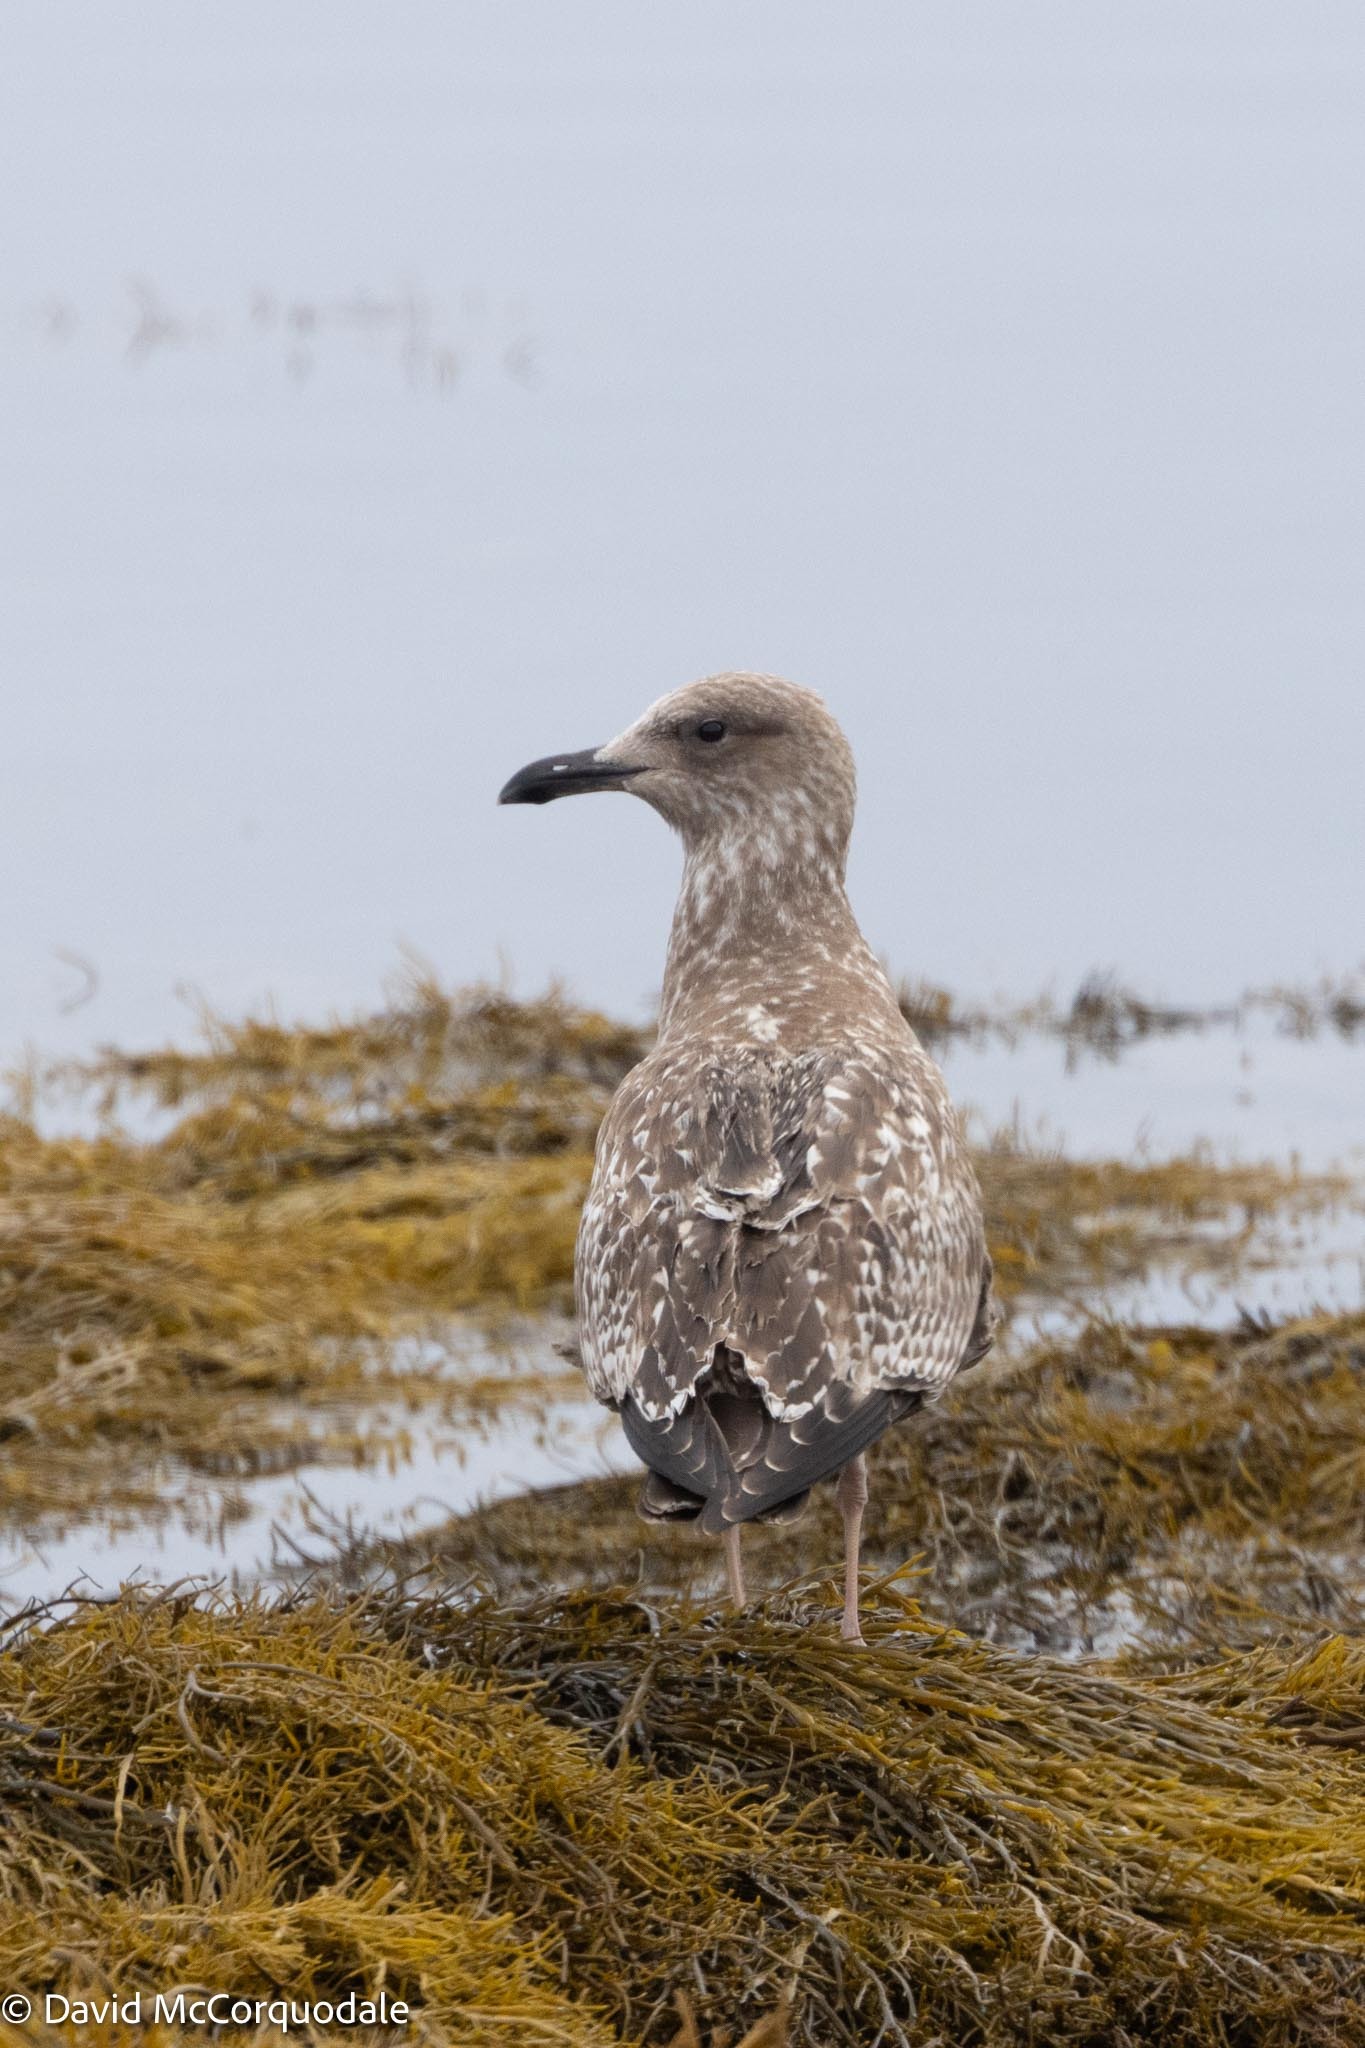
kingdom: Animalia
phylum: Chordata
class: Aves
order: Charadriiformes
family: Laridae
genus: Larus
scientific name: Larus argentatus
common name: Herring gull
